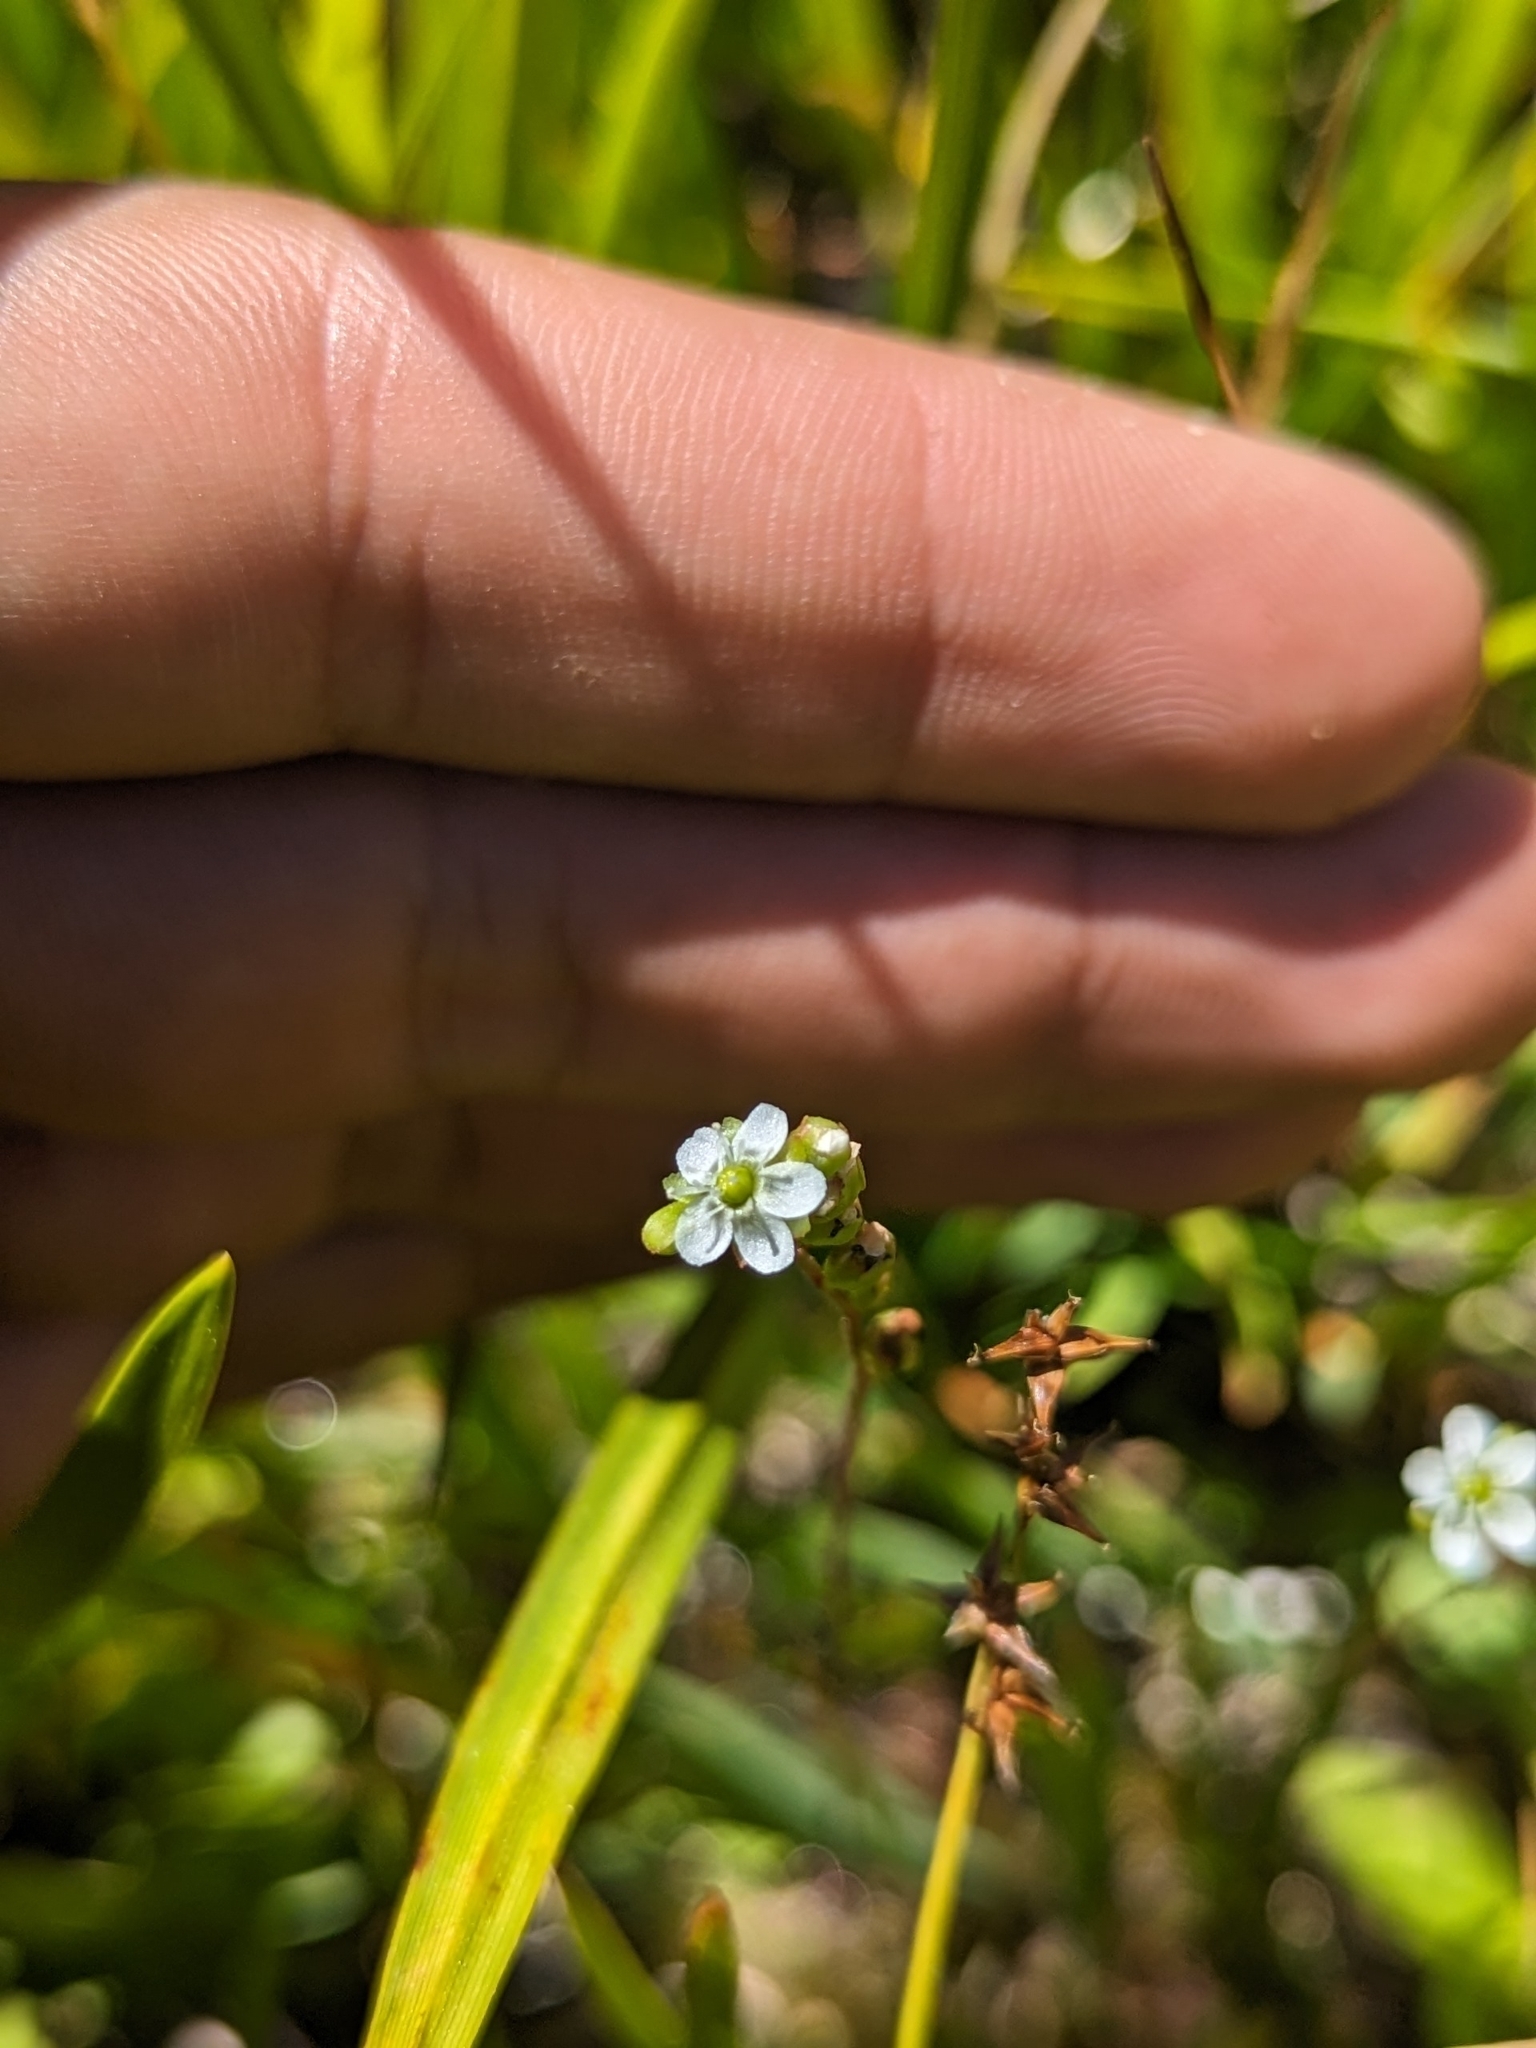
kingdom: Plantae
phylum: Tracheophyta
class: Magnoliopsida
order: Caryophyllales
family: Droseraceae
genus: Drosera
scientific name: Drosera rotundifolia
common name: Round-leaved sundew
